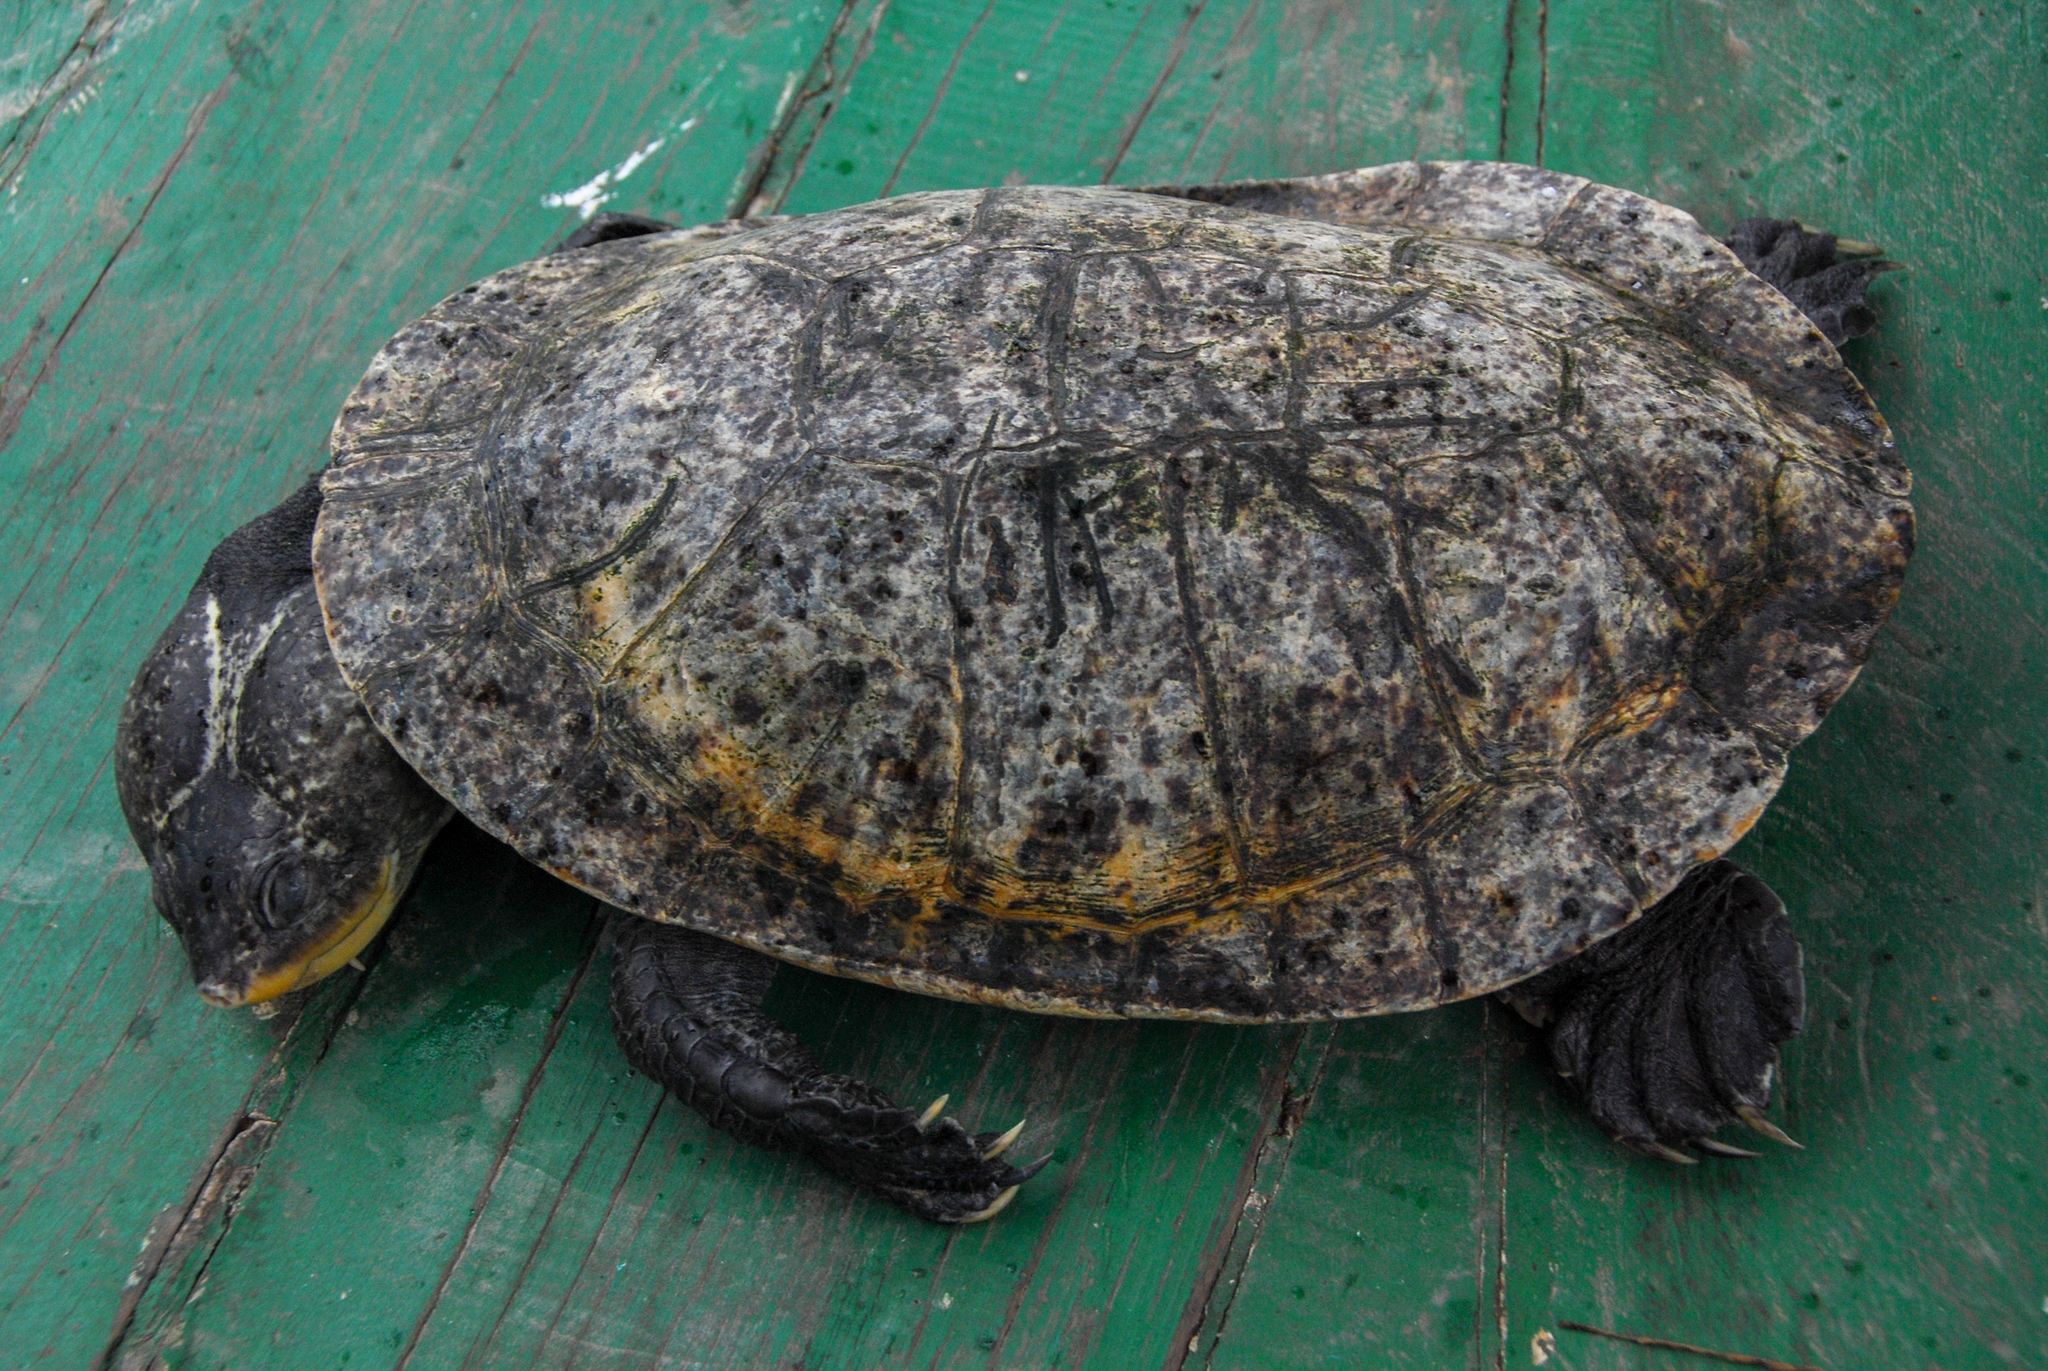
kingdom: Animalia
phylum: Chordata
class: Testudines
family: Chelidae
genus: Mesoclemmys
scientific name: Mesoclemmys raniceps
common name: Amazon toad-headed turtle
